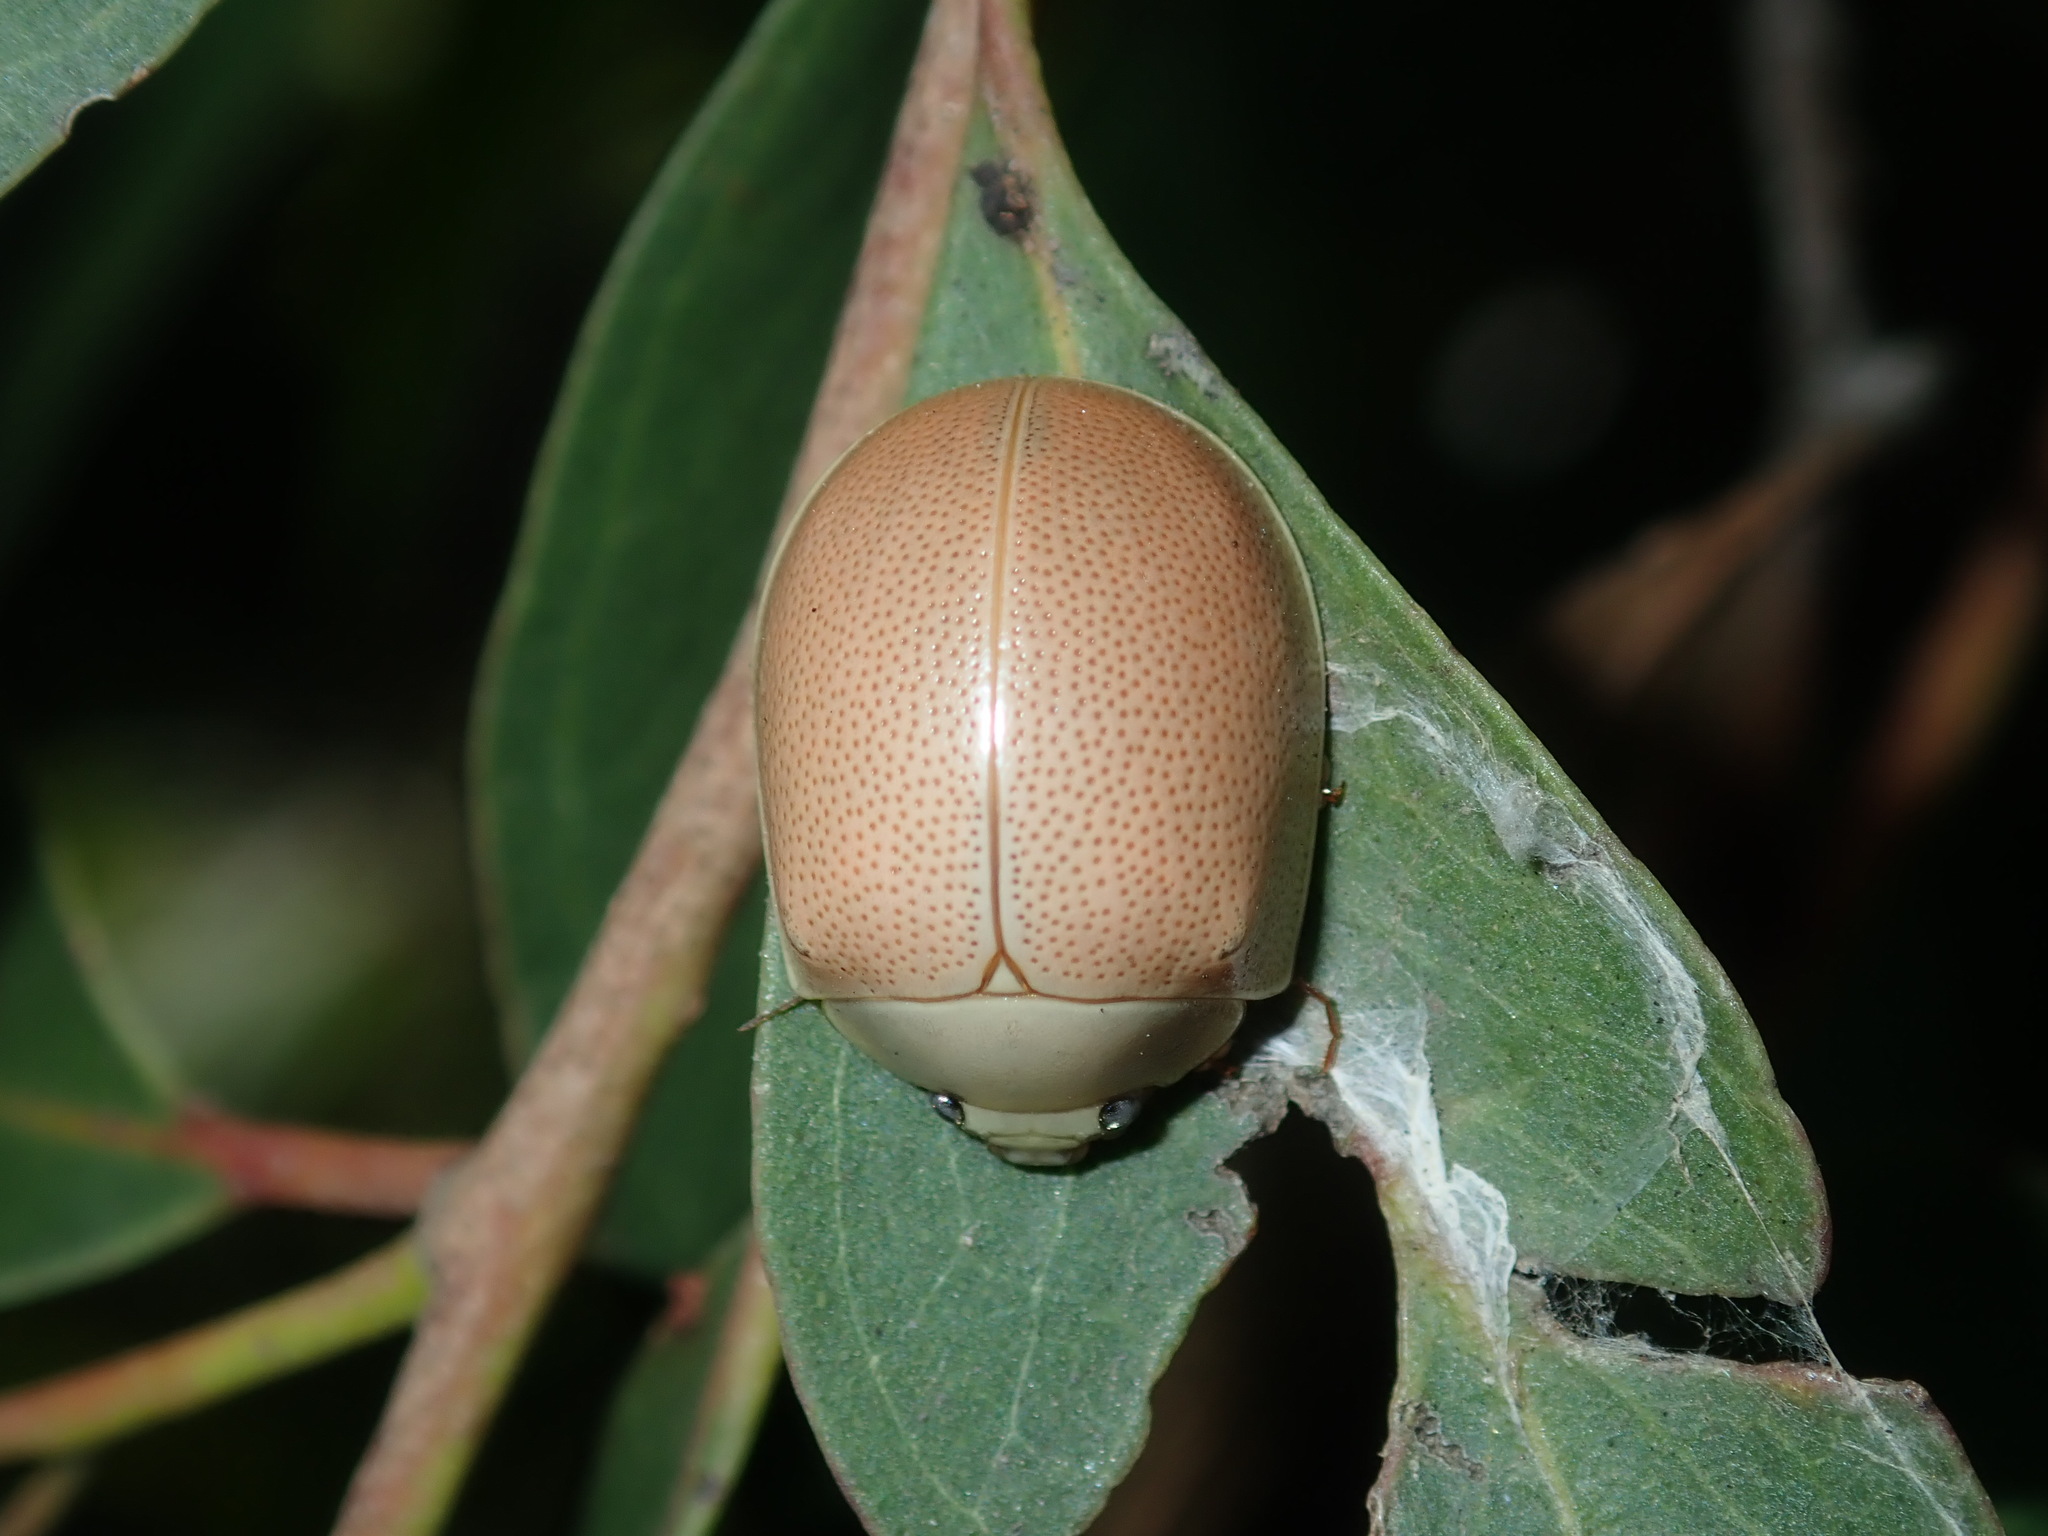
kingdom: Animalia
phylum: Arthropoda
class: Insecta
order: Coleoptera
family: Chrysomelidae
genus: Paropsisterna
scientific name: Paropsisterna
